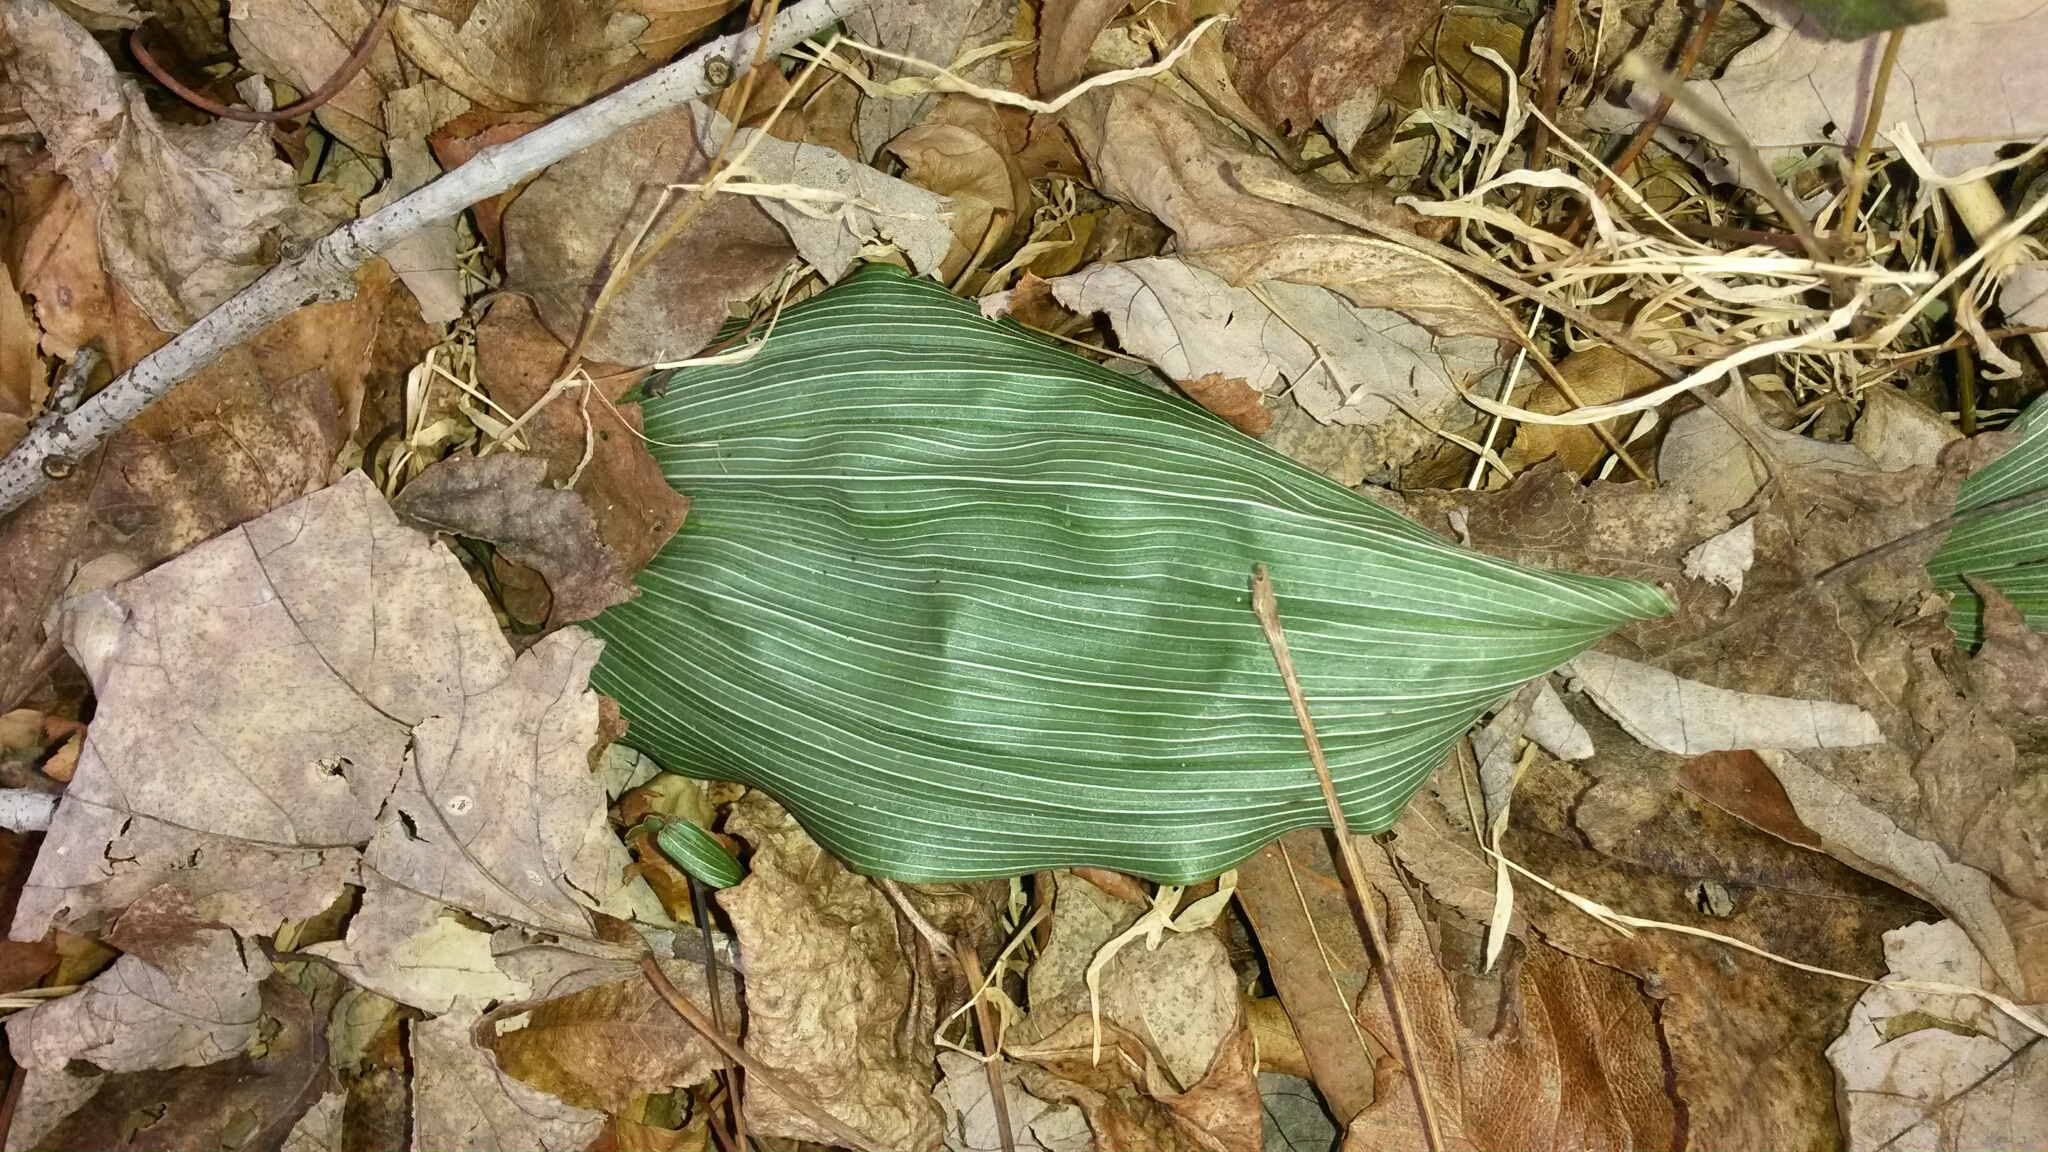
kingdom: Plantae
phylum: Tracheophyta
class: Liliopsida
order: Asparagales
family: Orchidaceae
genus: Aplectrum
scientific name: Aplectrum hyemale
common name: Adam-and-eve
